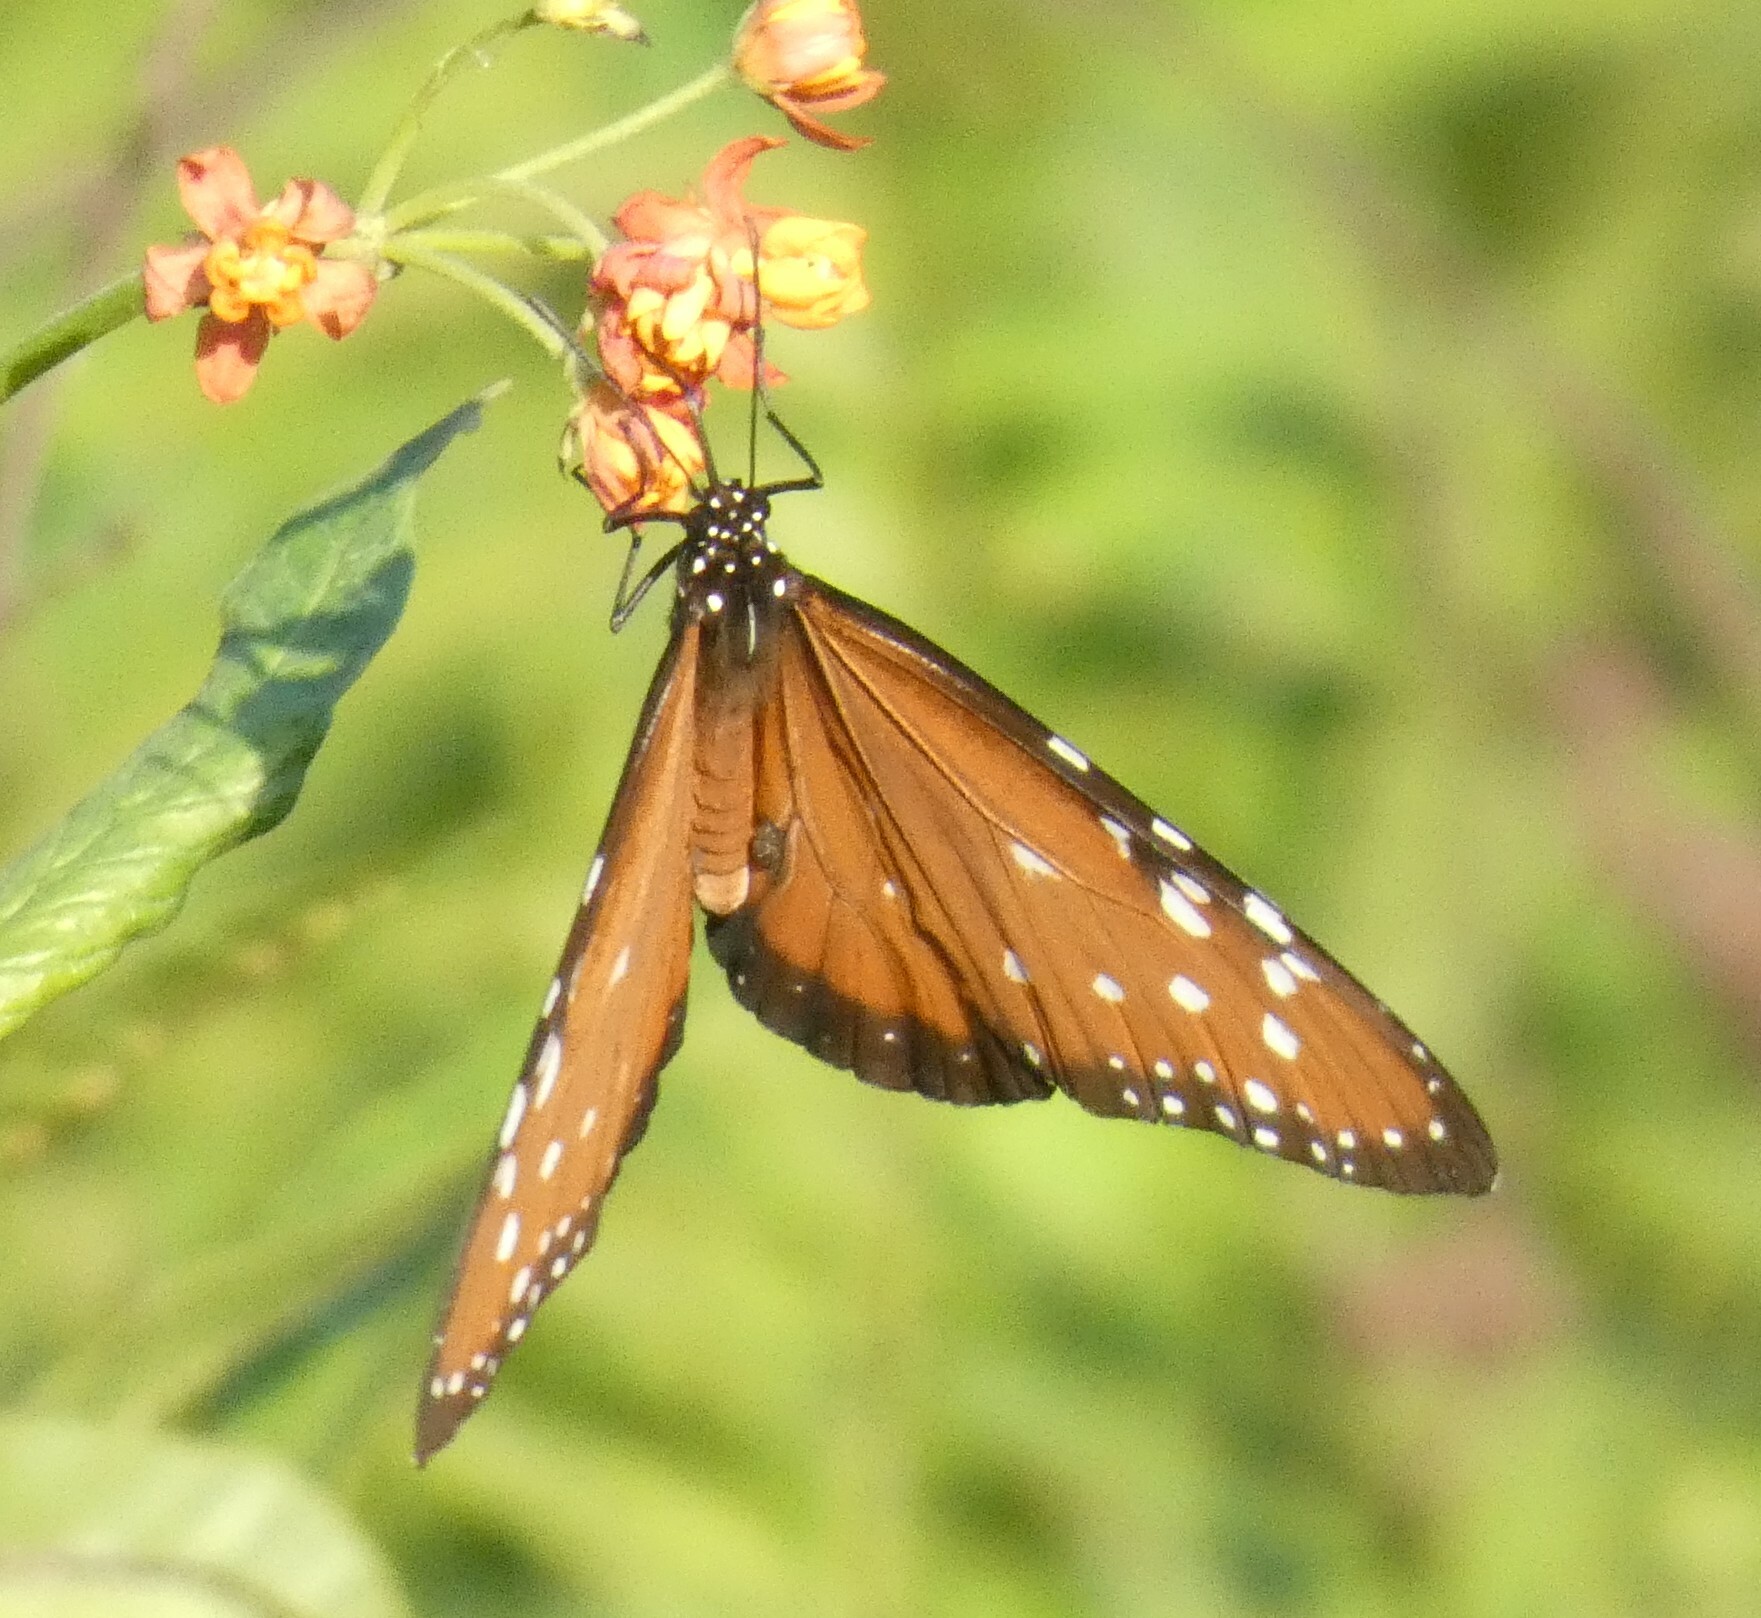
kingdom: Animalia
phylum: Arthropoda
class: Insecta
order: Lepidoptera
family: Nymphalidae
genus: Danaus
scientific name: Danaus gilippus
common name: Queen
